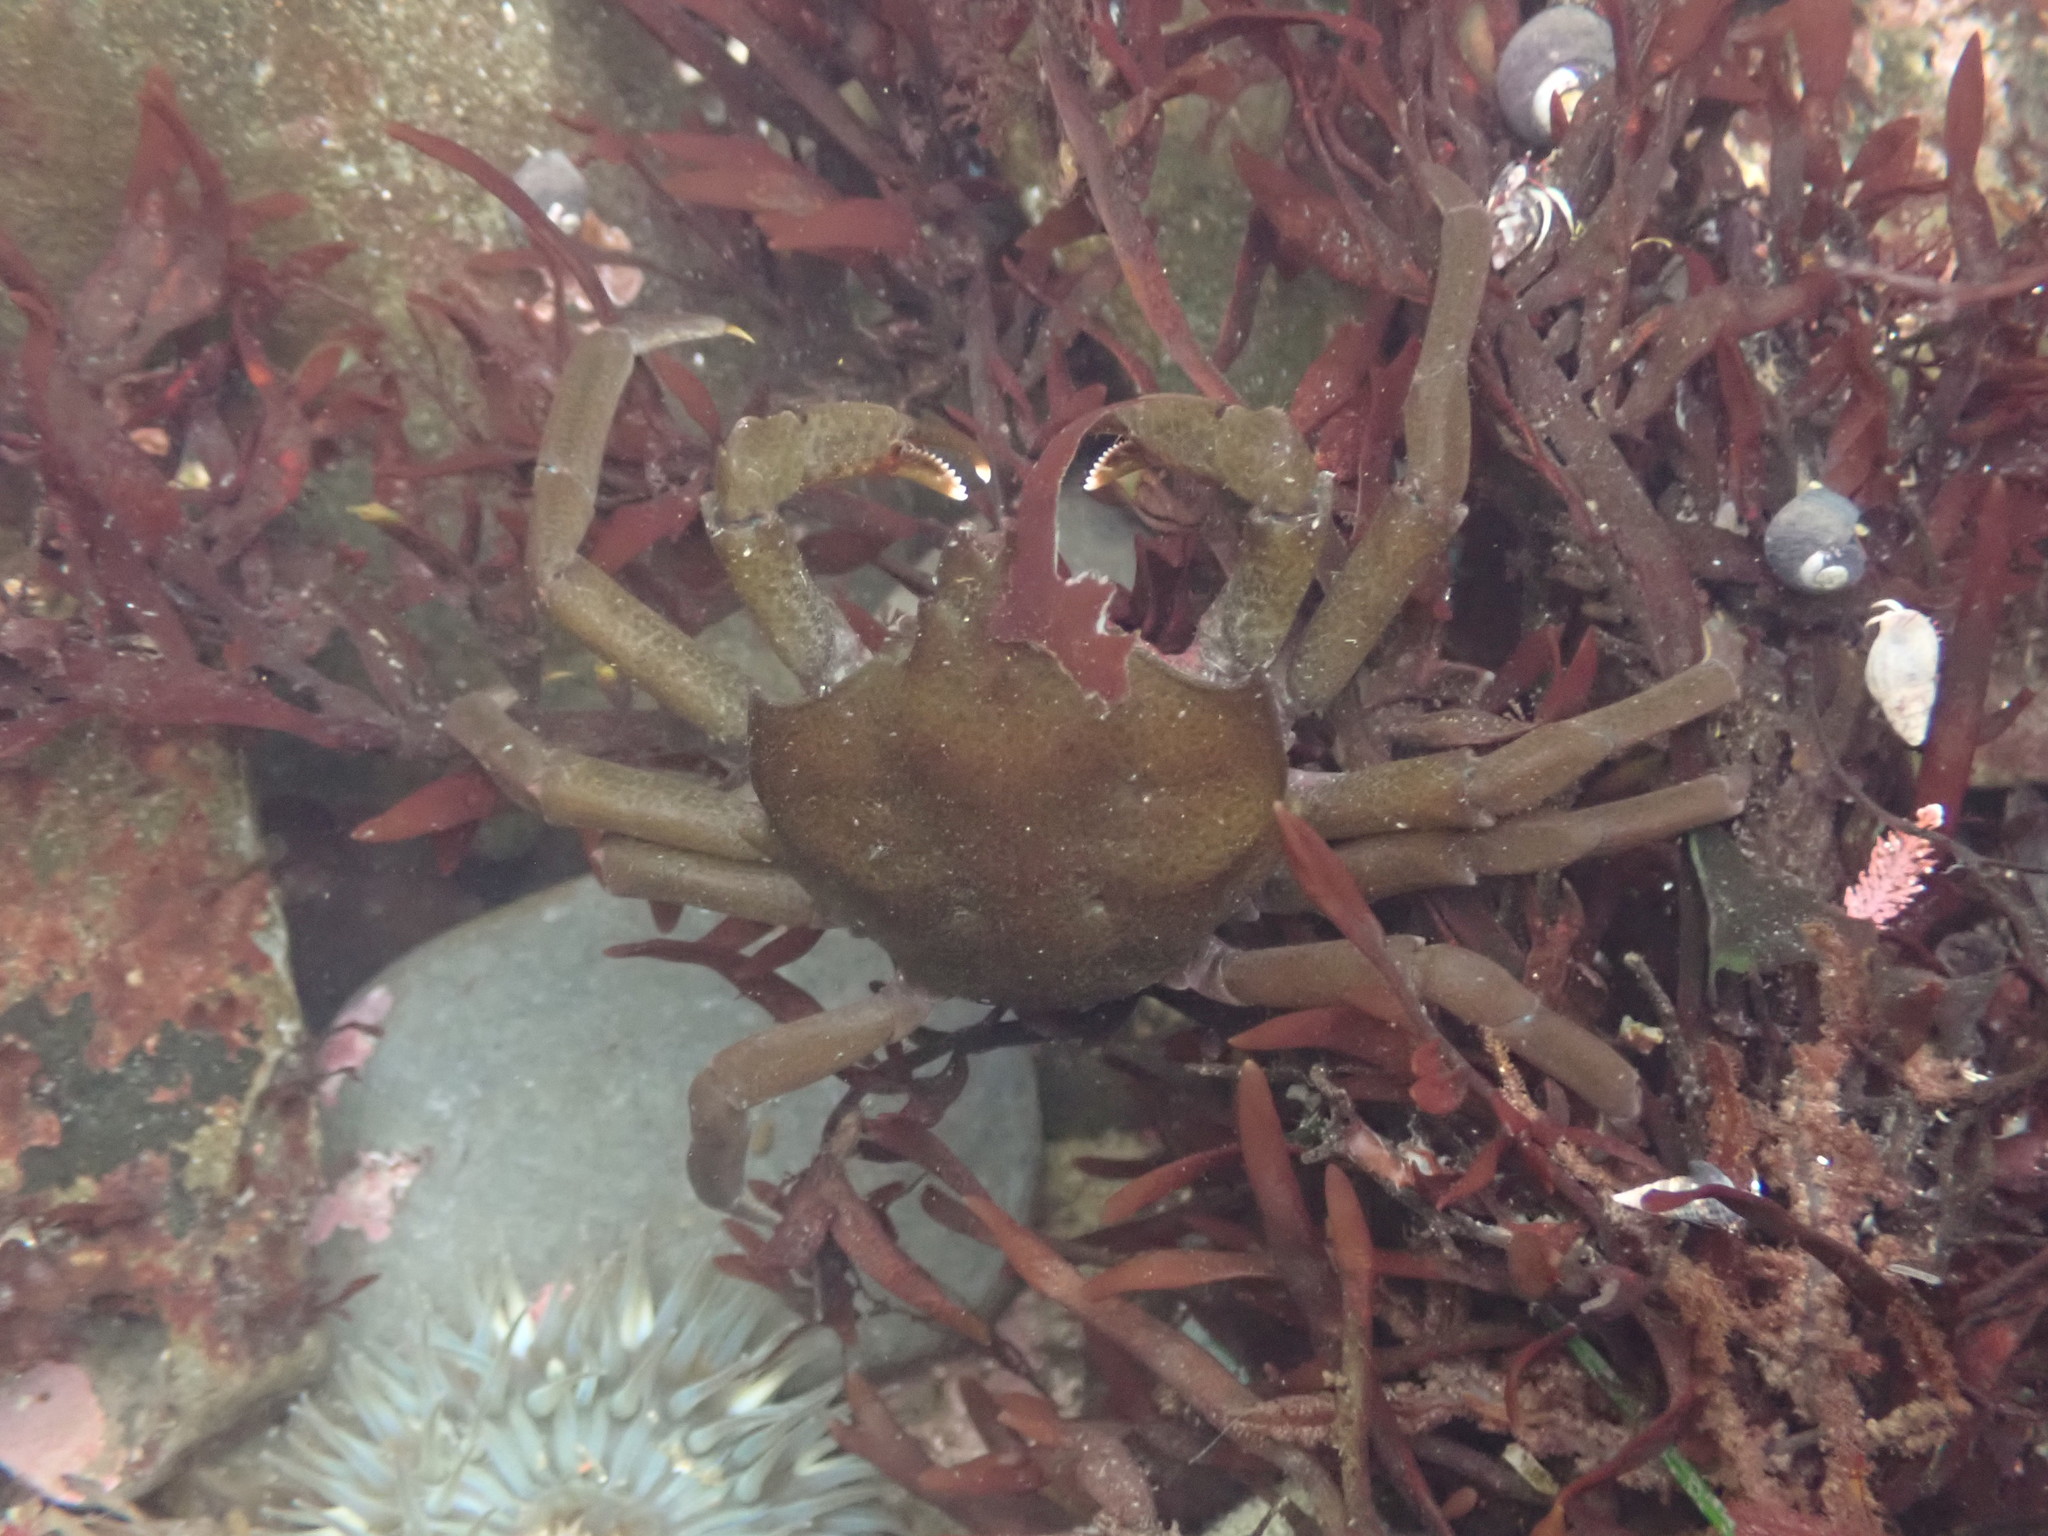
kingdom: Animalia
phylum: Arthropoda
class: Malacostraca
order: Decapoda
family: Epialtidae
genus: Pugettia
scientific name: Pugettia producta
